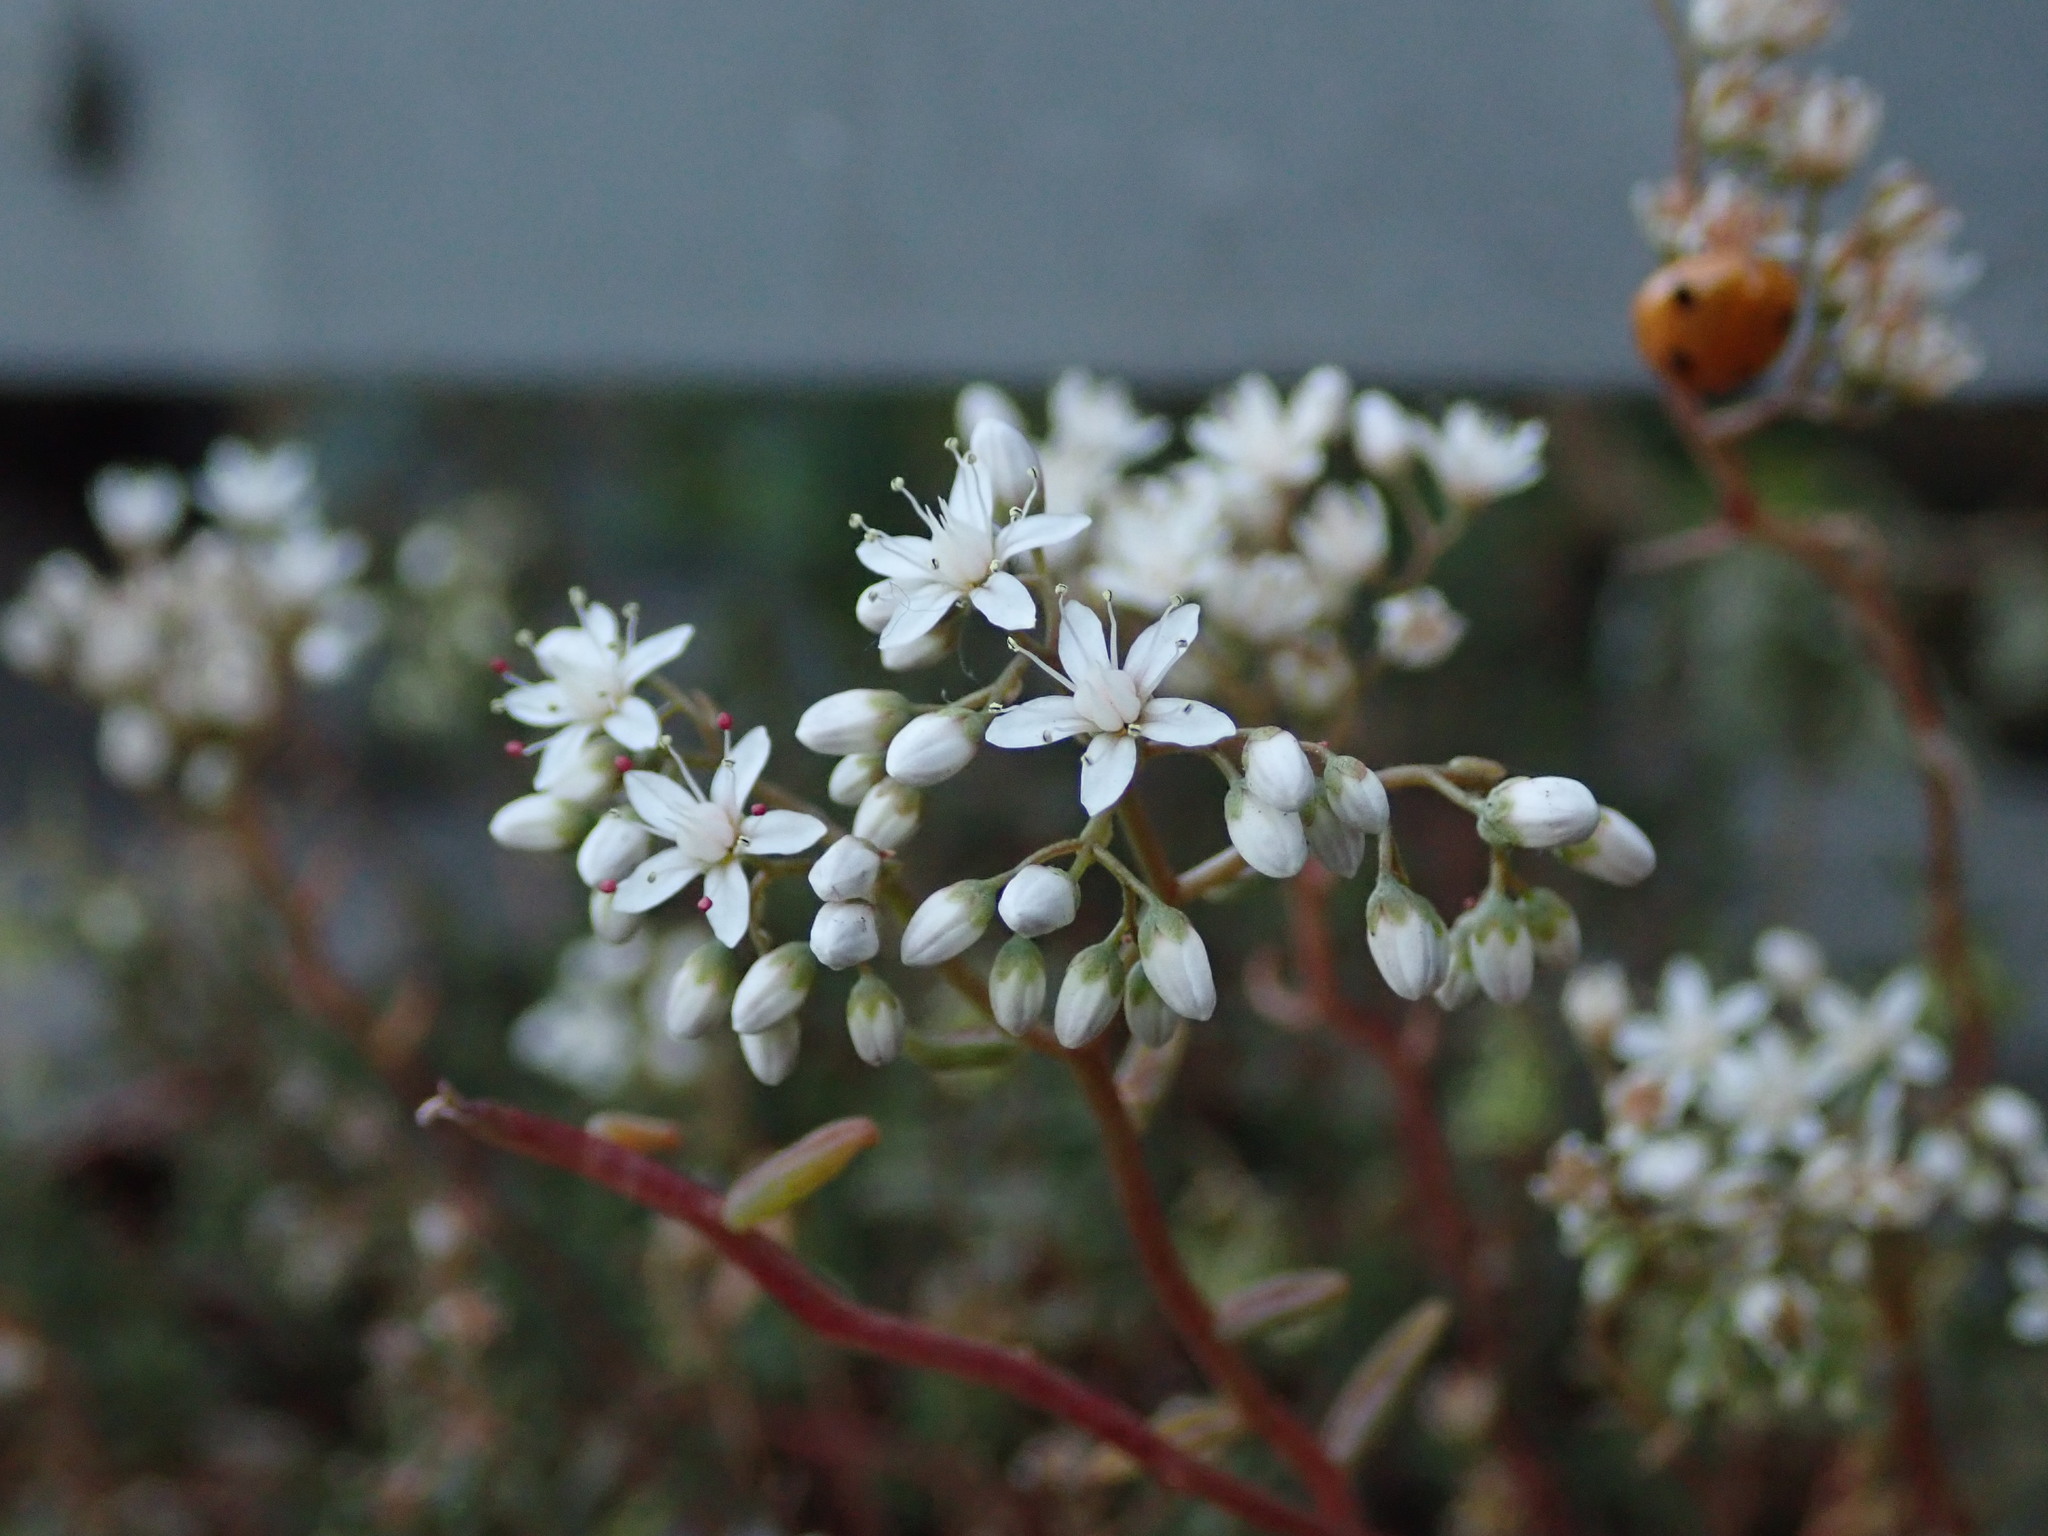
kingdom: Plantae
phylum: Tracheophyta
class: Magnoliopsida
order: Saxifragales
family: Crassulaceae
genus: Sedum
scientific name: Sedum album
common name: White stonecrop
